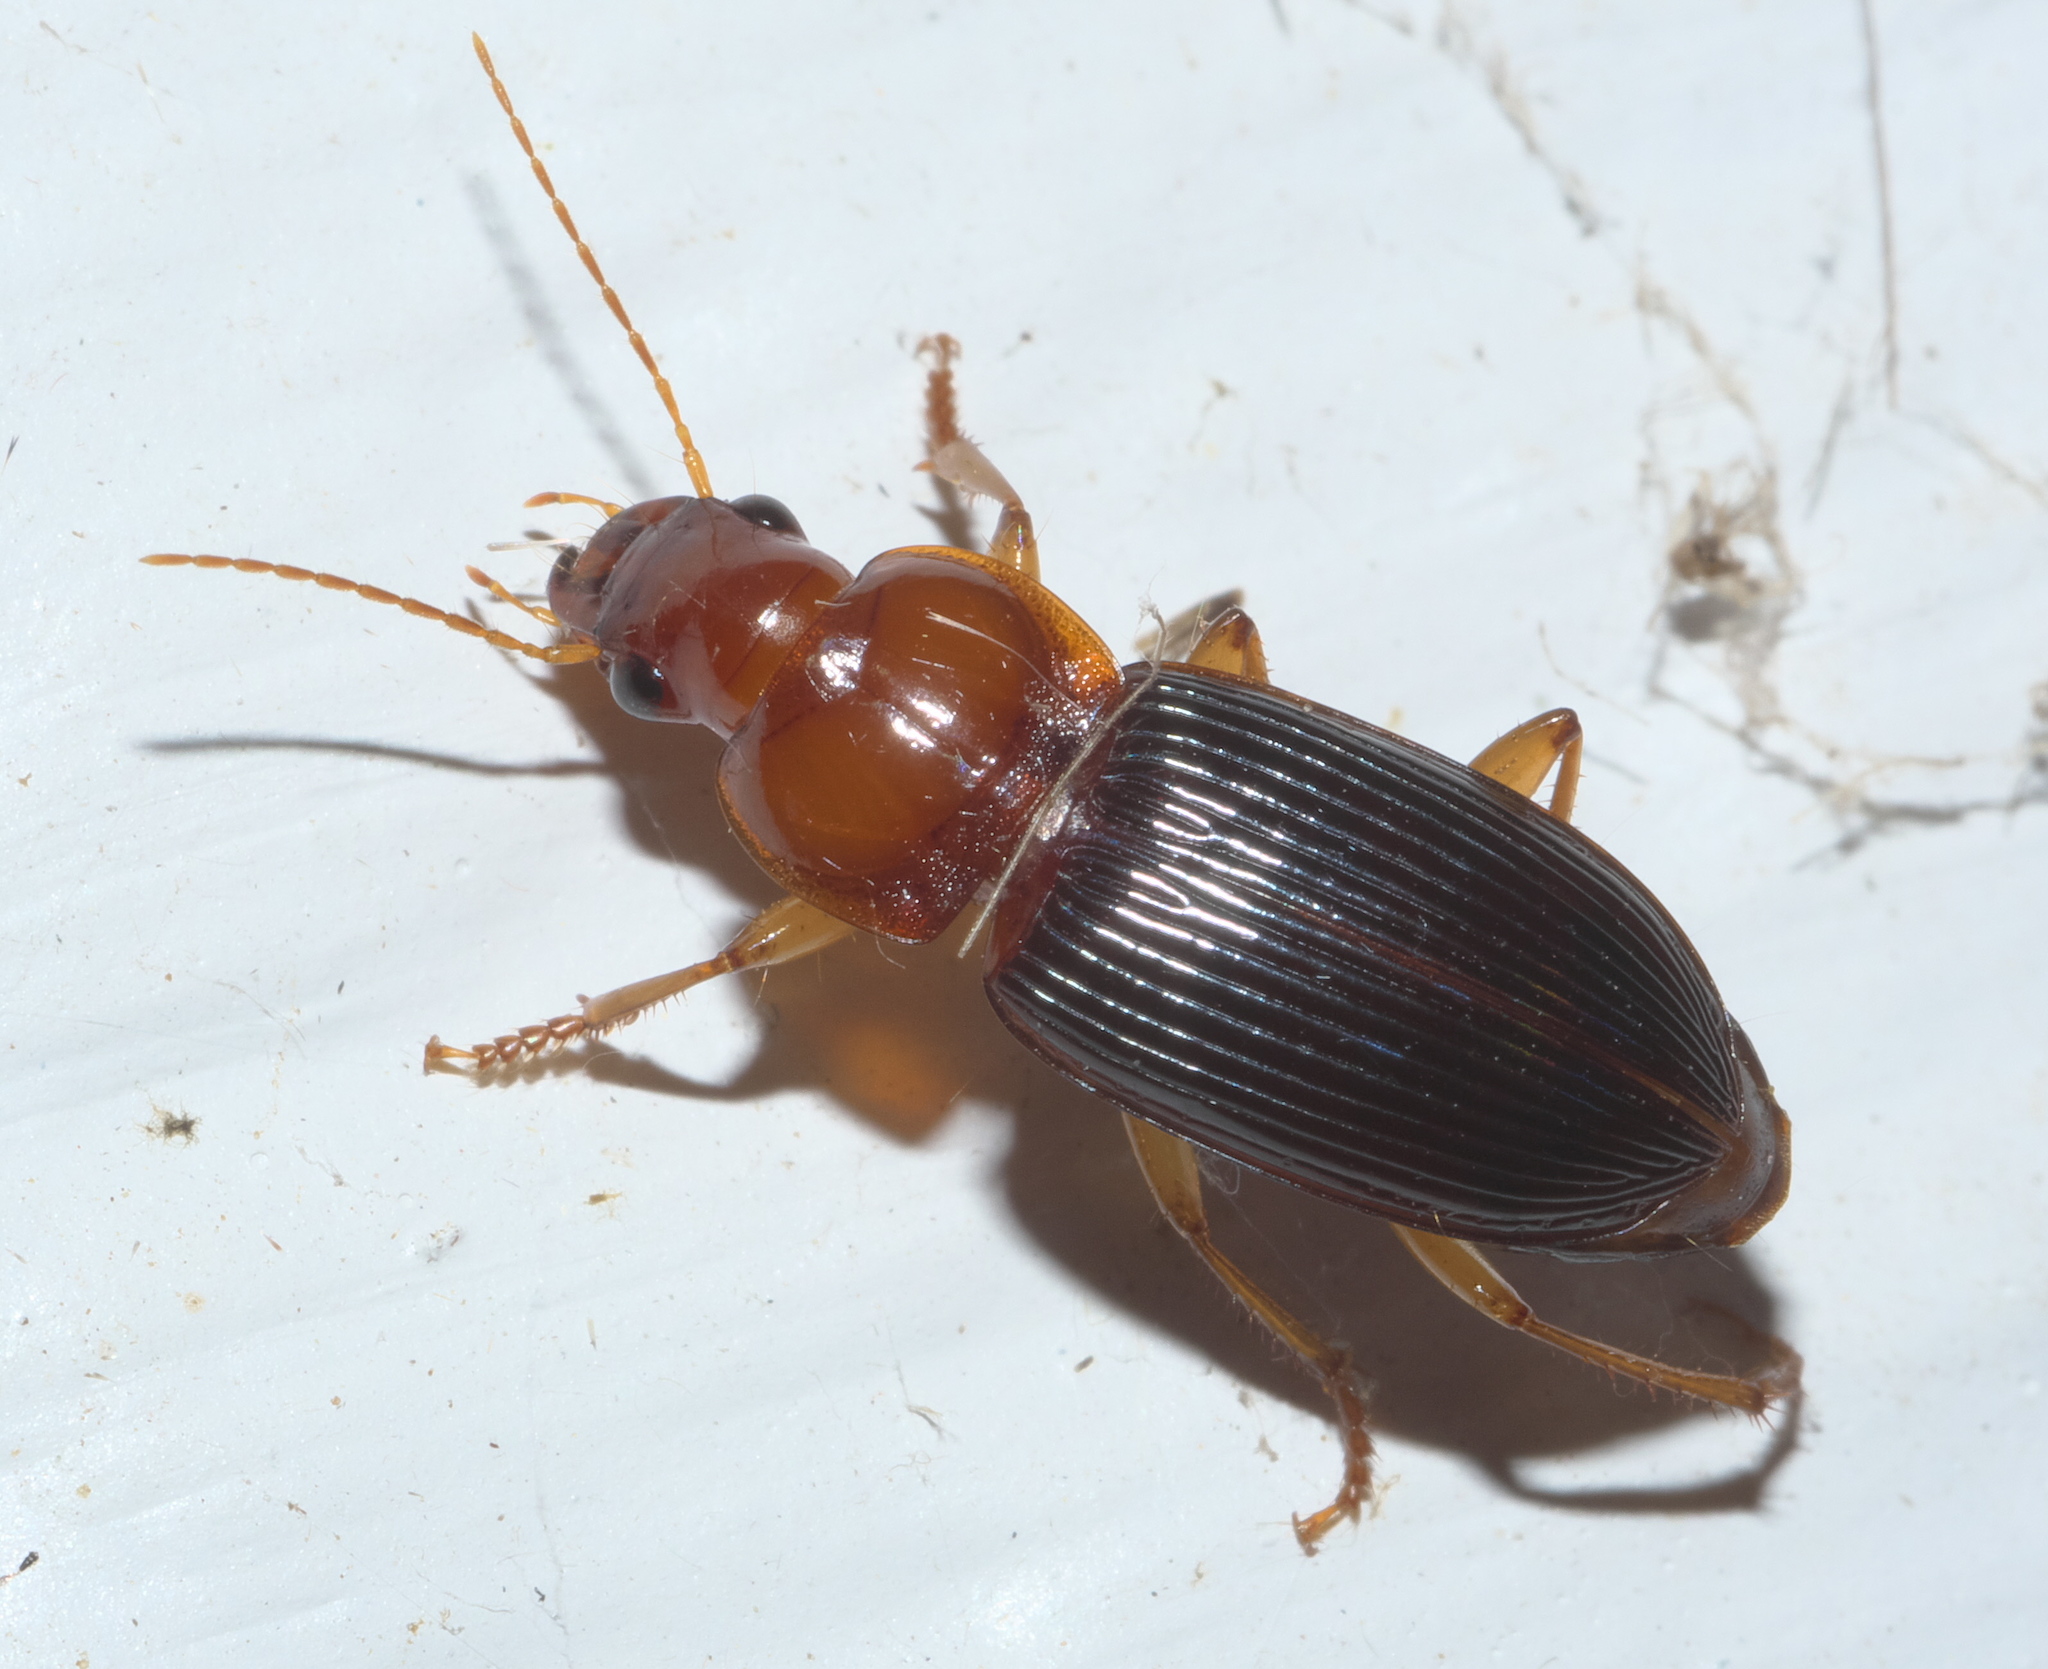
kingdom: Animalia
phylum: Arthropoda
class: Insecta
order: Coleoptera
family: Carabidae
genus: Trichotichnus
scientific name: Trichotichnus dichrous
